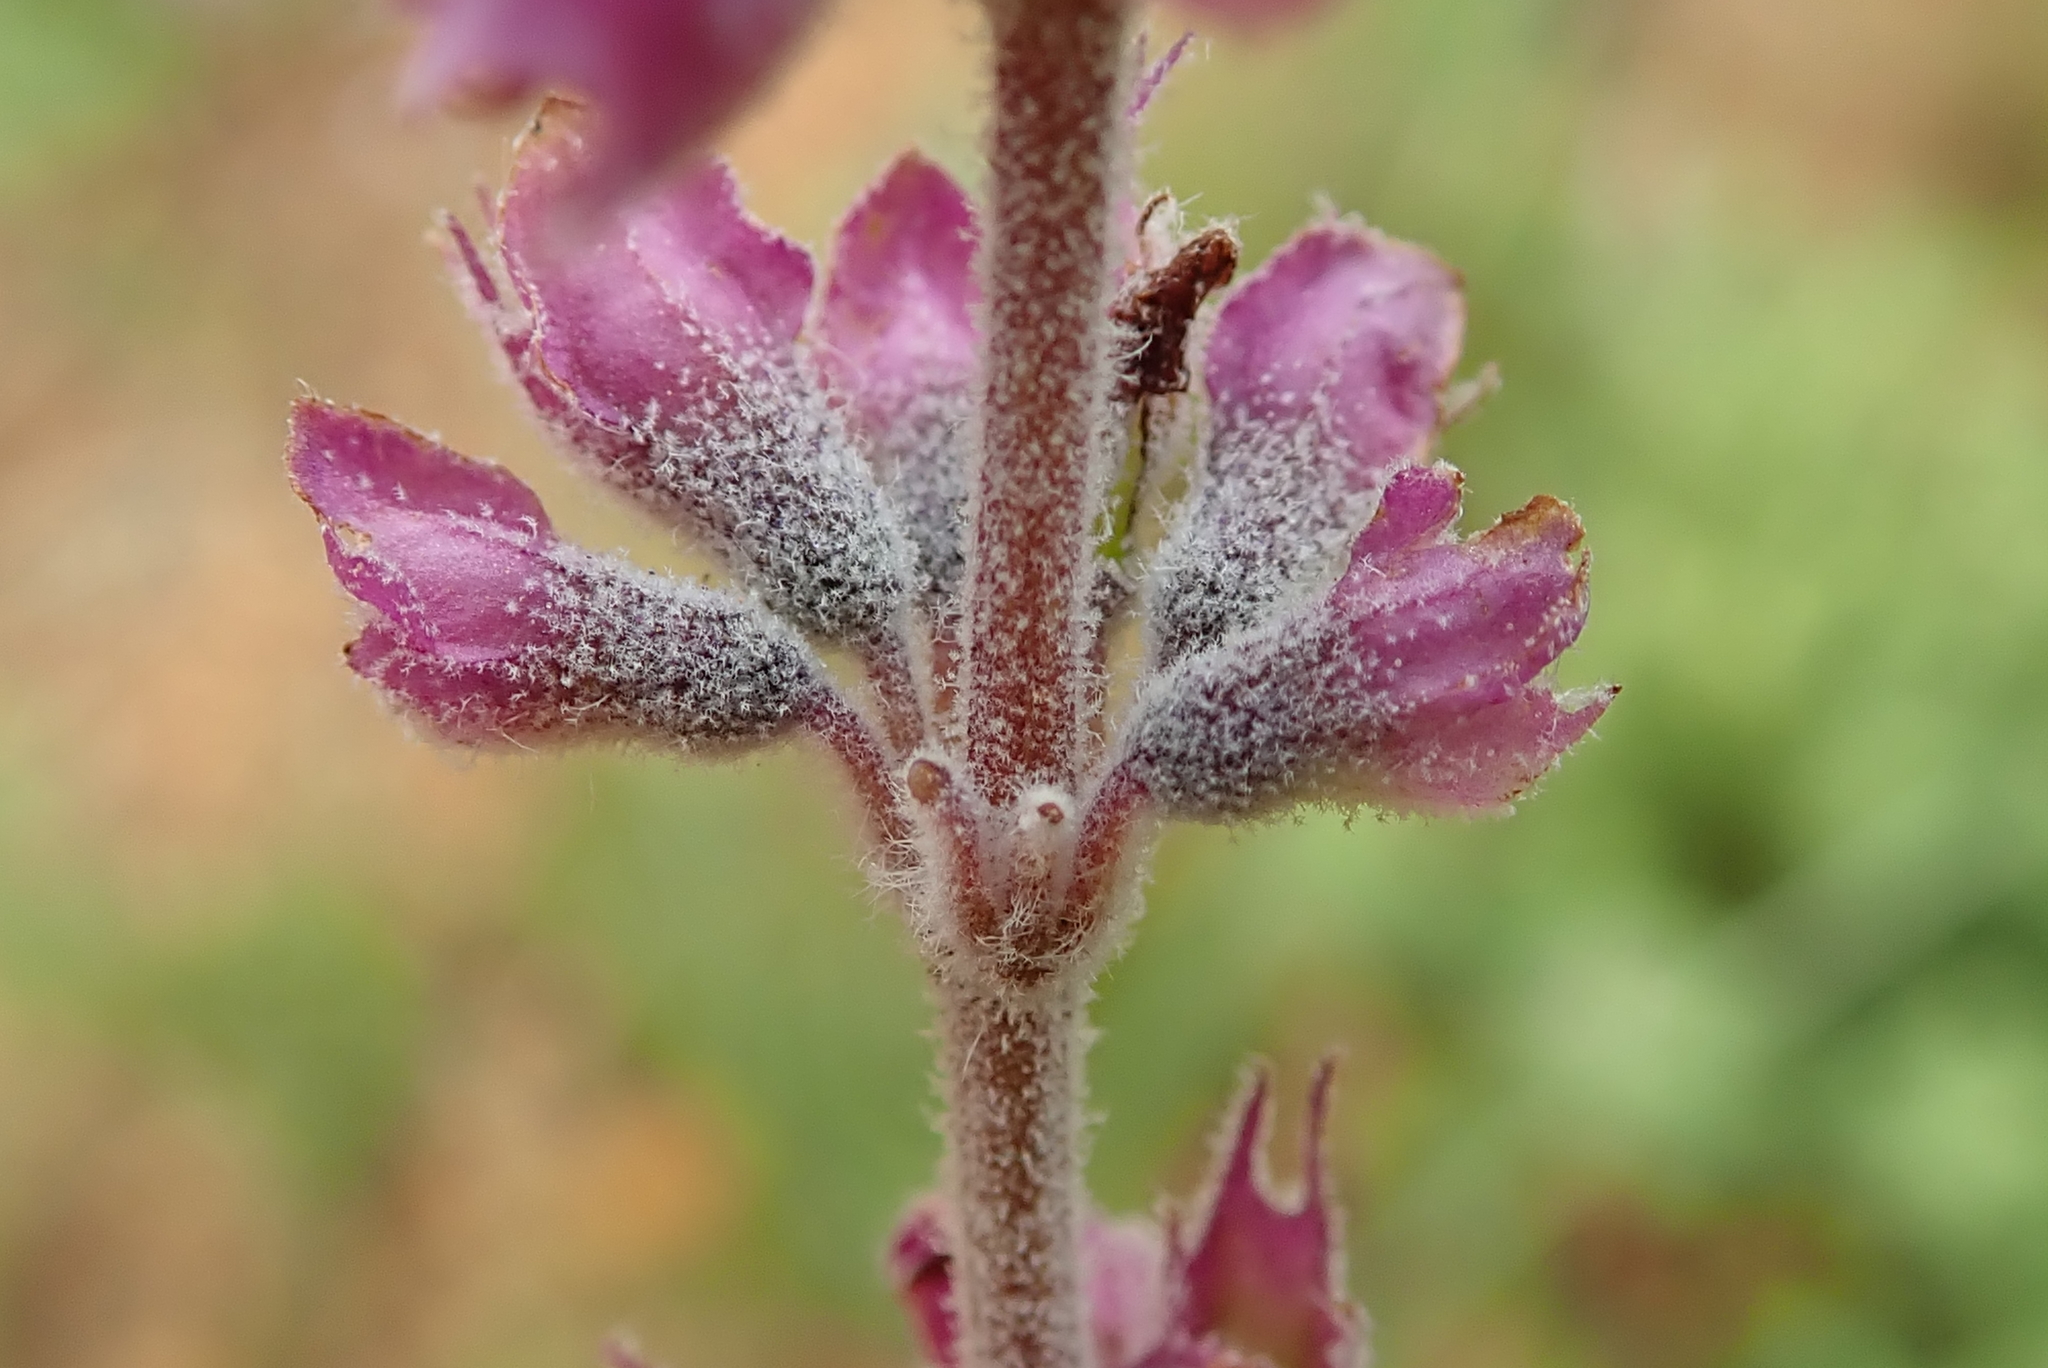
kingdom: Plantae
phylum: Tracheophyta
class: Magnoliopsida
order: Lamiales
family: Lamiaceae
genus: Syncolostemon
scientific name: Syncolostemon teucriifolius
